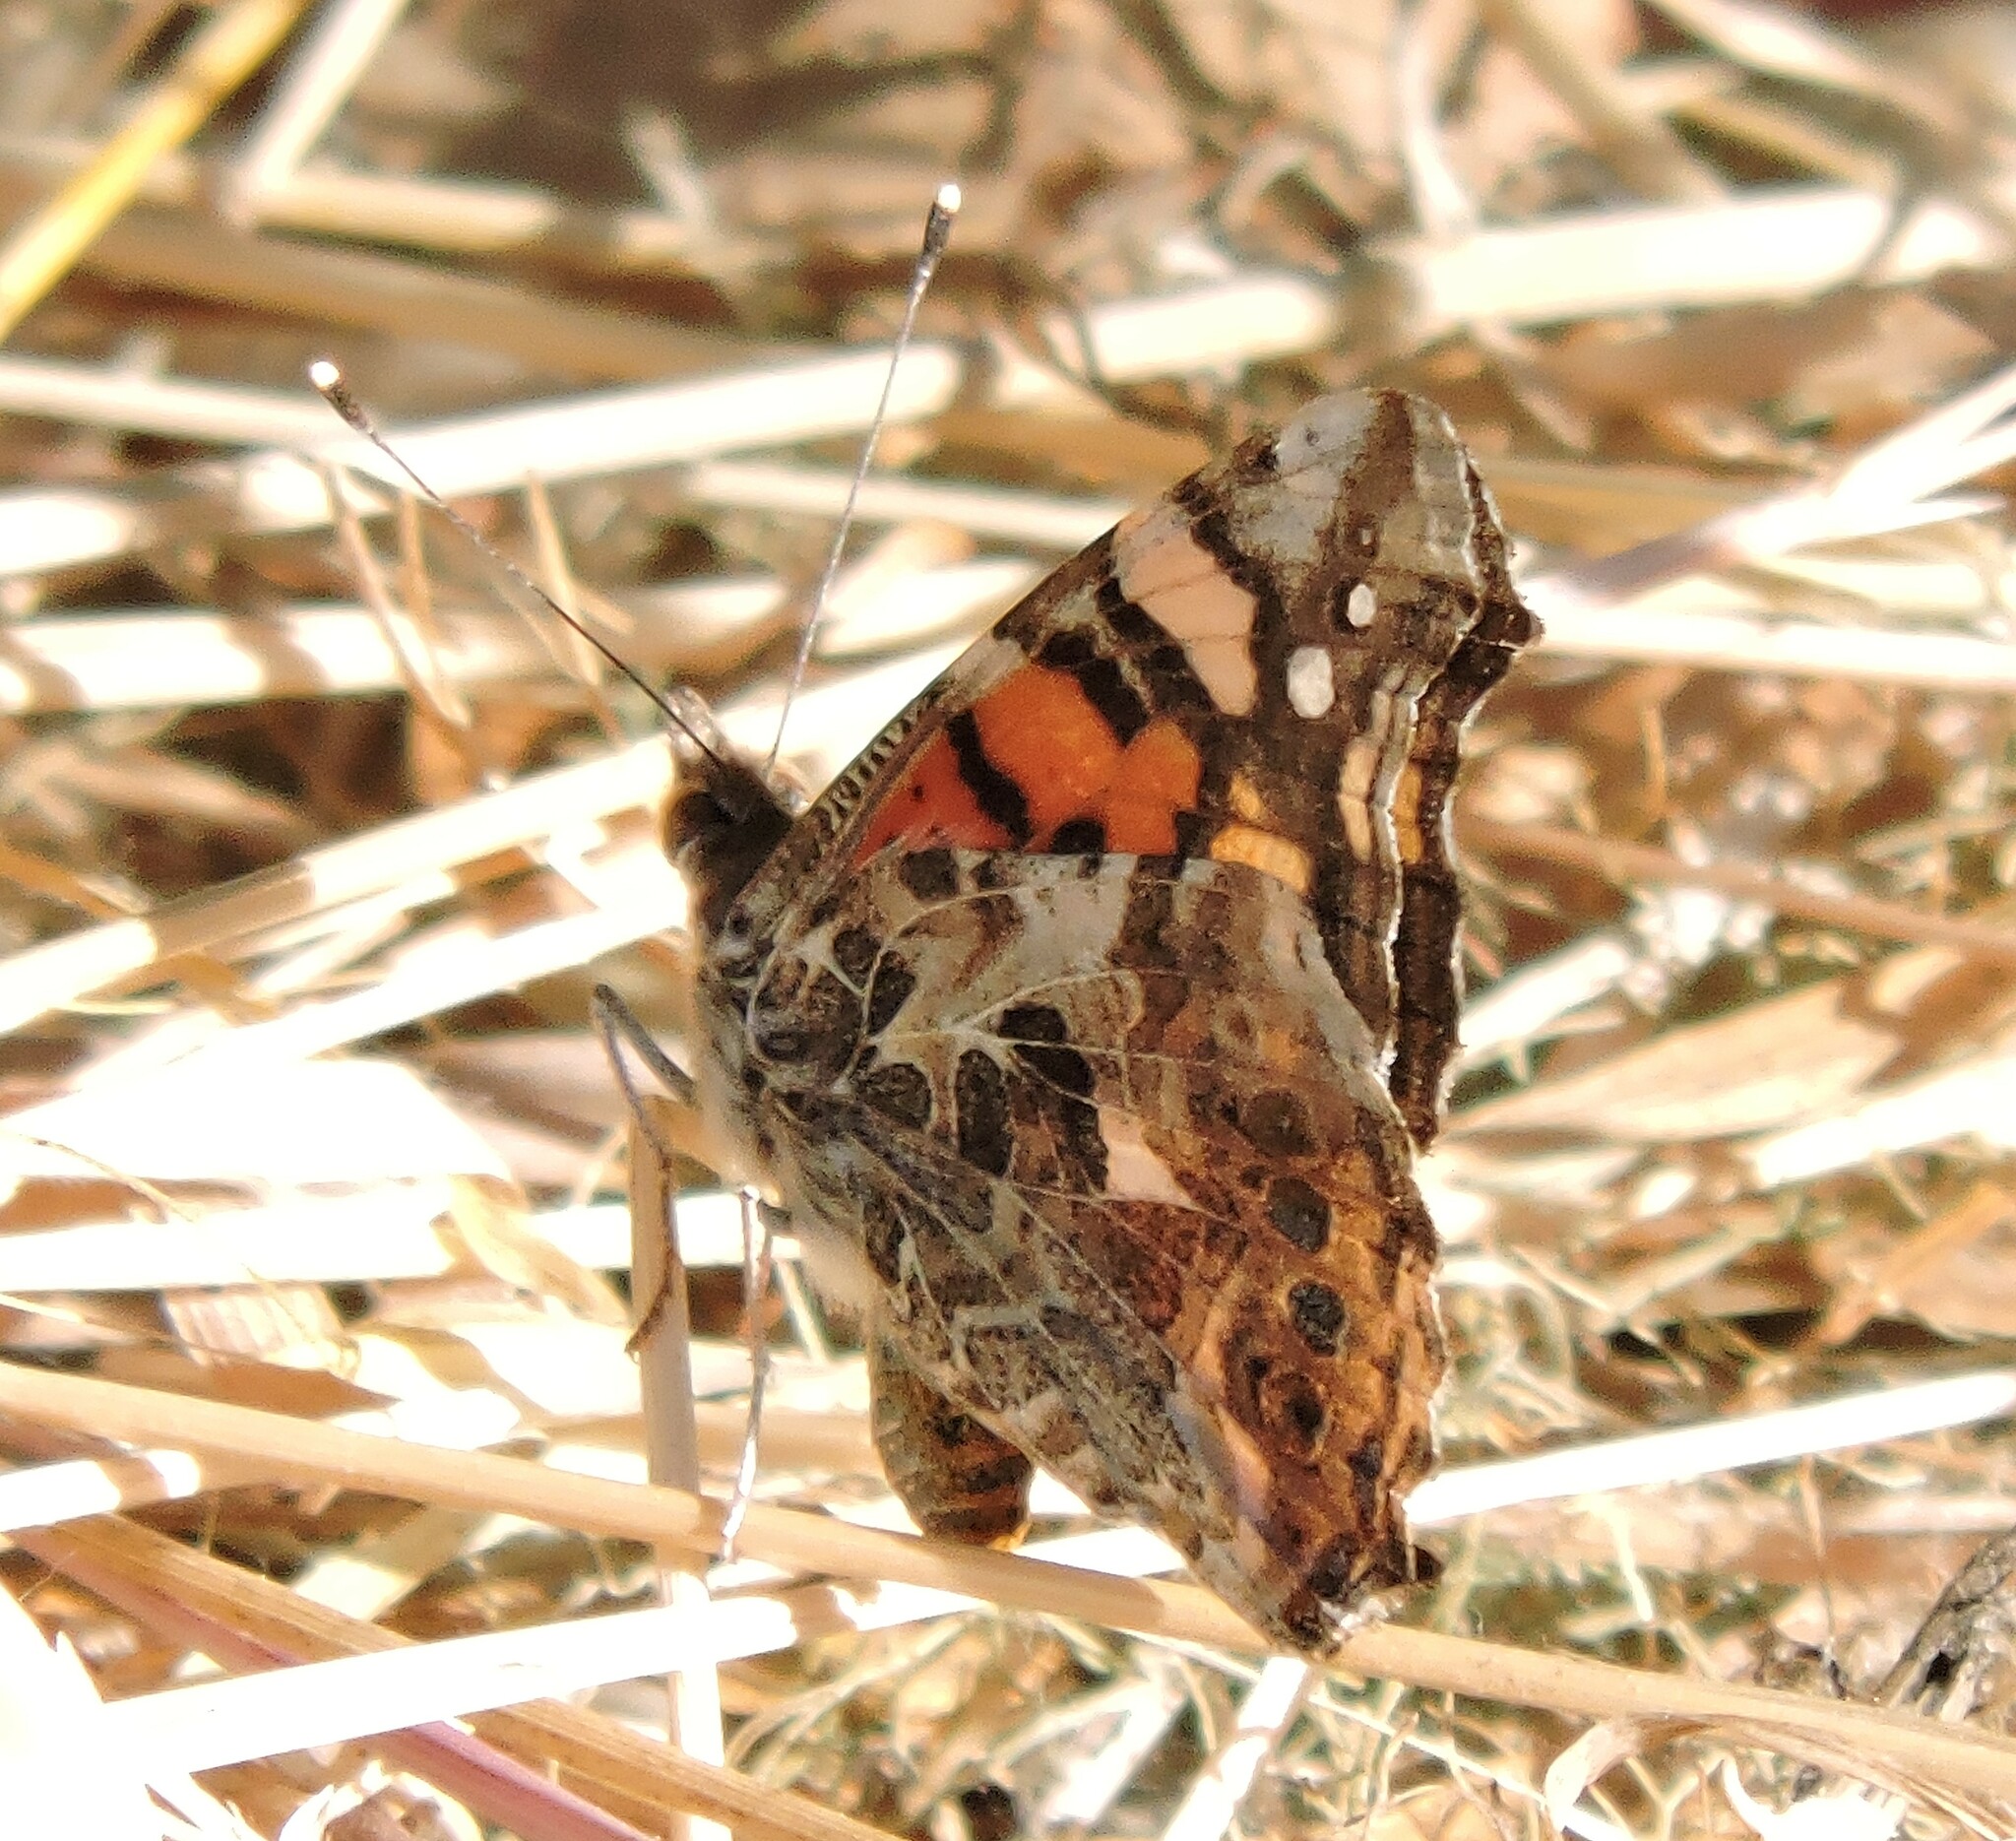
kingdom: Animalia
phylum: Arthropoda
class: Insecta
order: Lepidoptera
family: Nymphalidae
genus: Vanessa
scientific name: Vanessa annabella
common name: West coast lady
